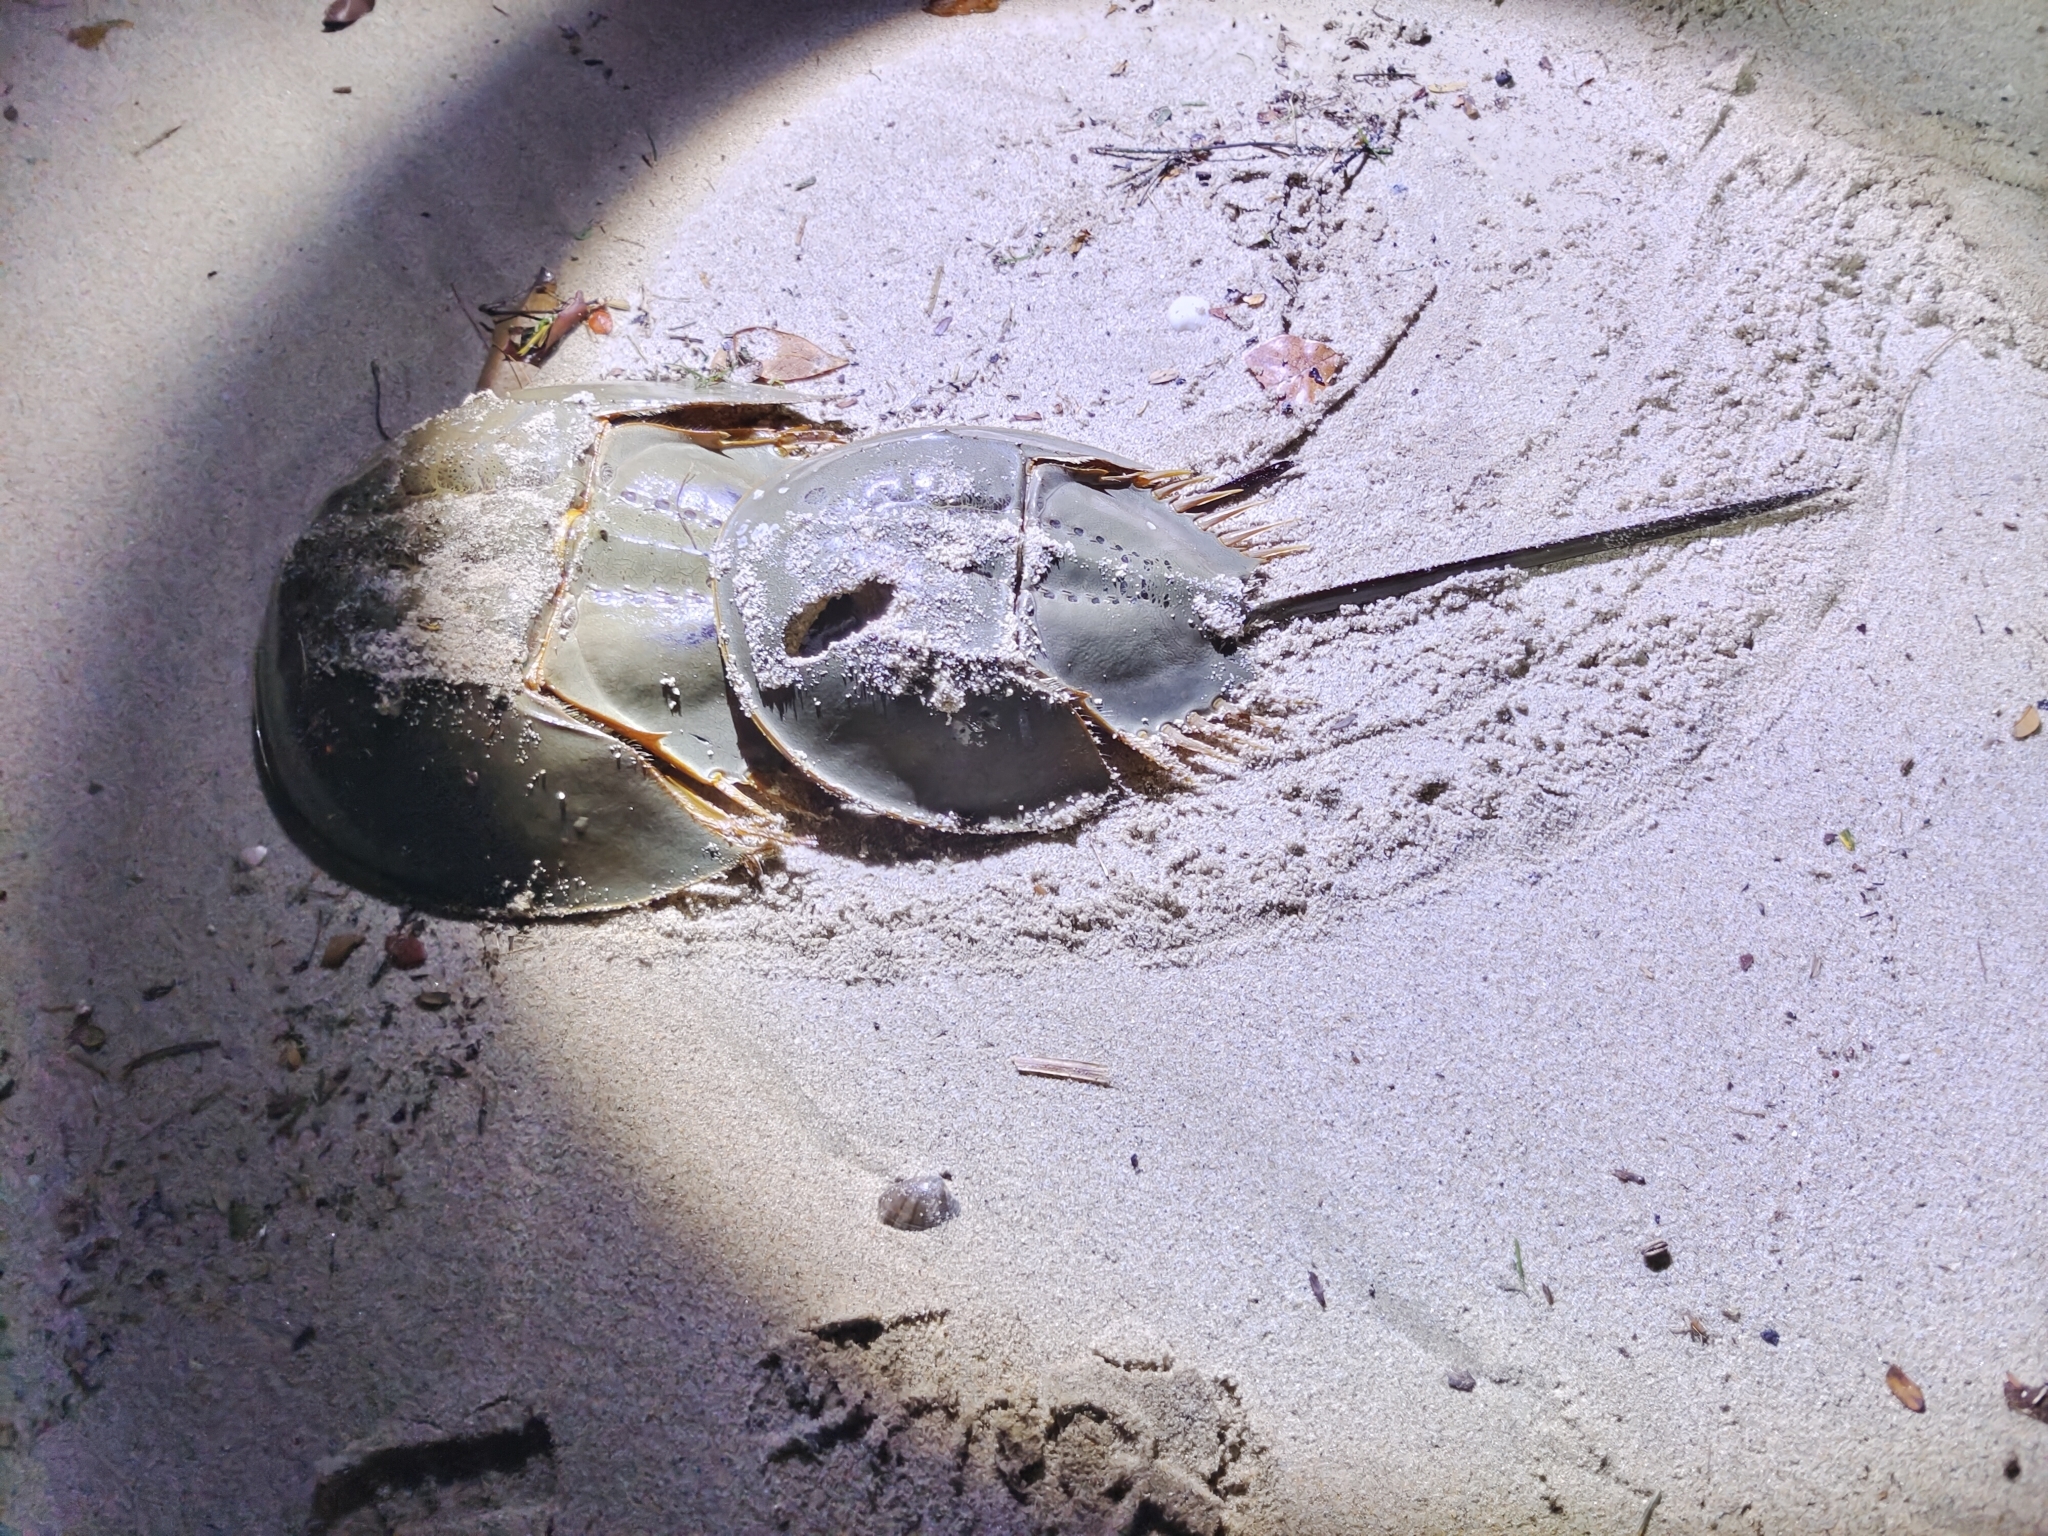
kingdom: Animalia
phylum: Arthropoda
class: Merostomata
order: Xiphosurida
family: Limulidae
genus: Tachypleus
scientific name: Tachypleus gigas
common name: Coastal horseshoe crab
